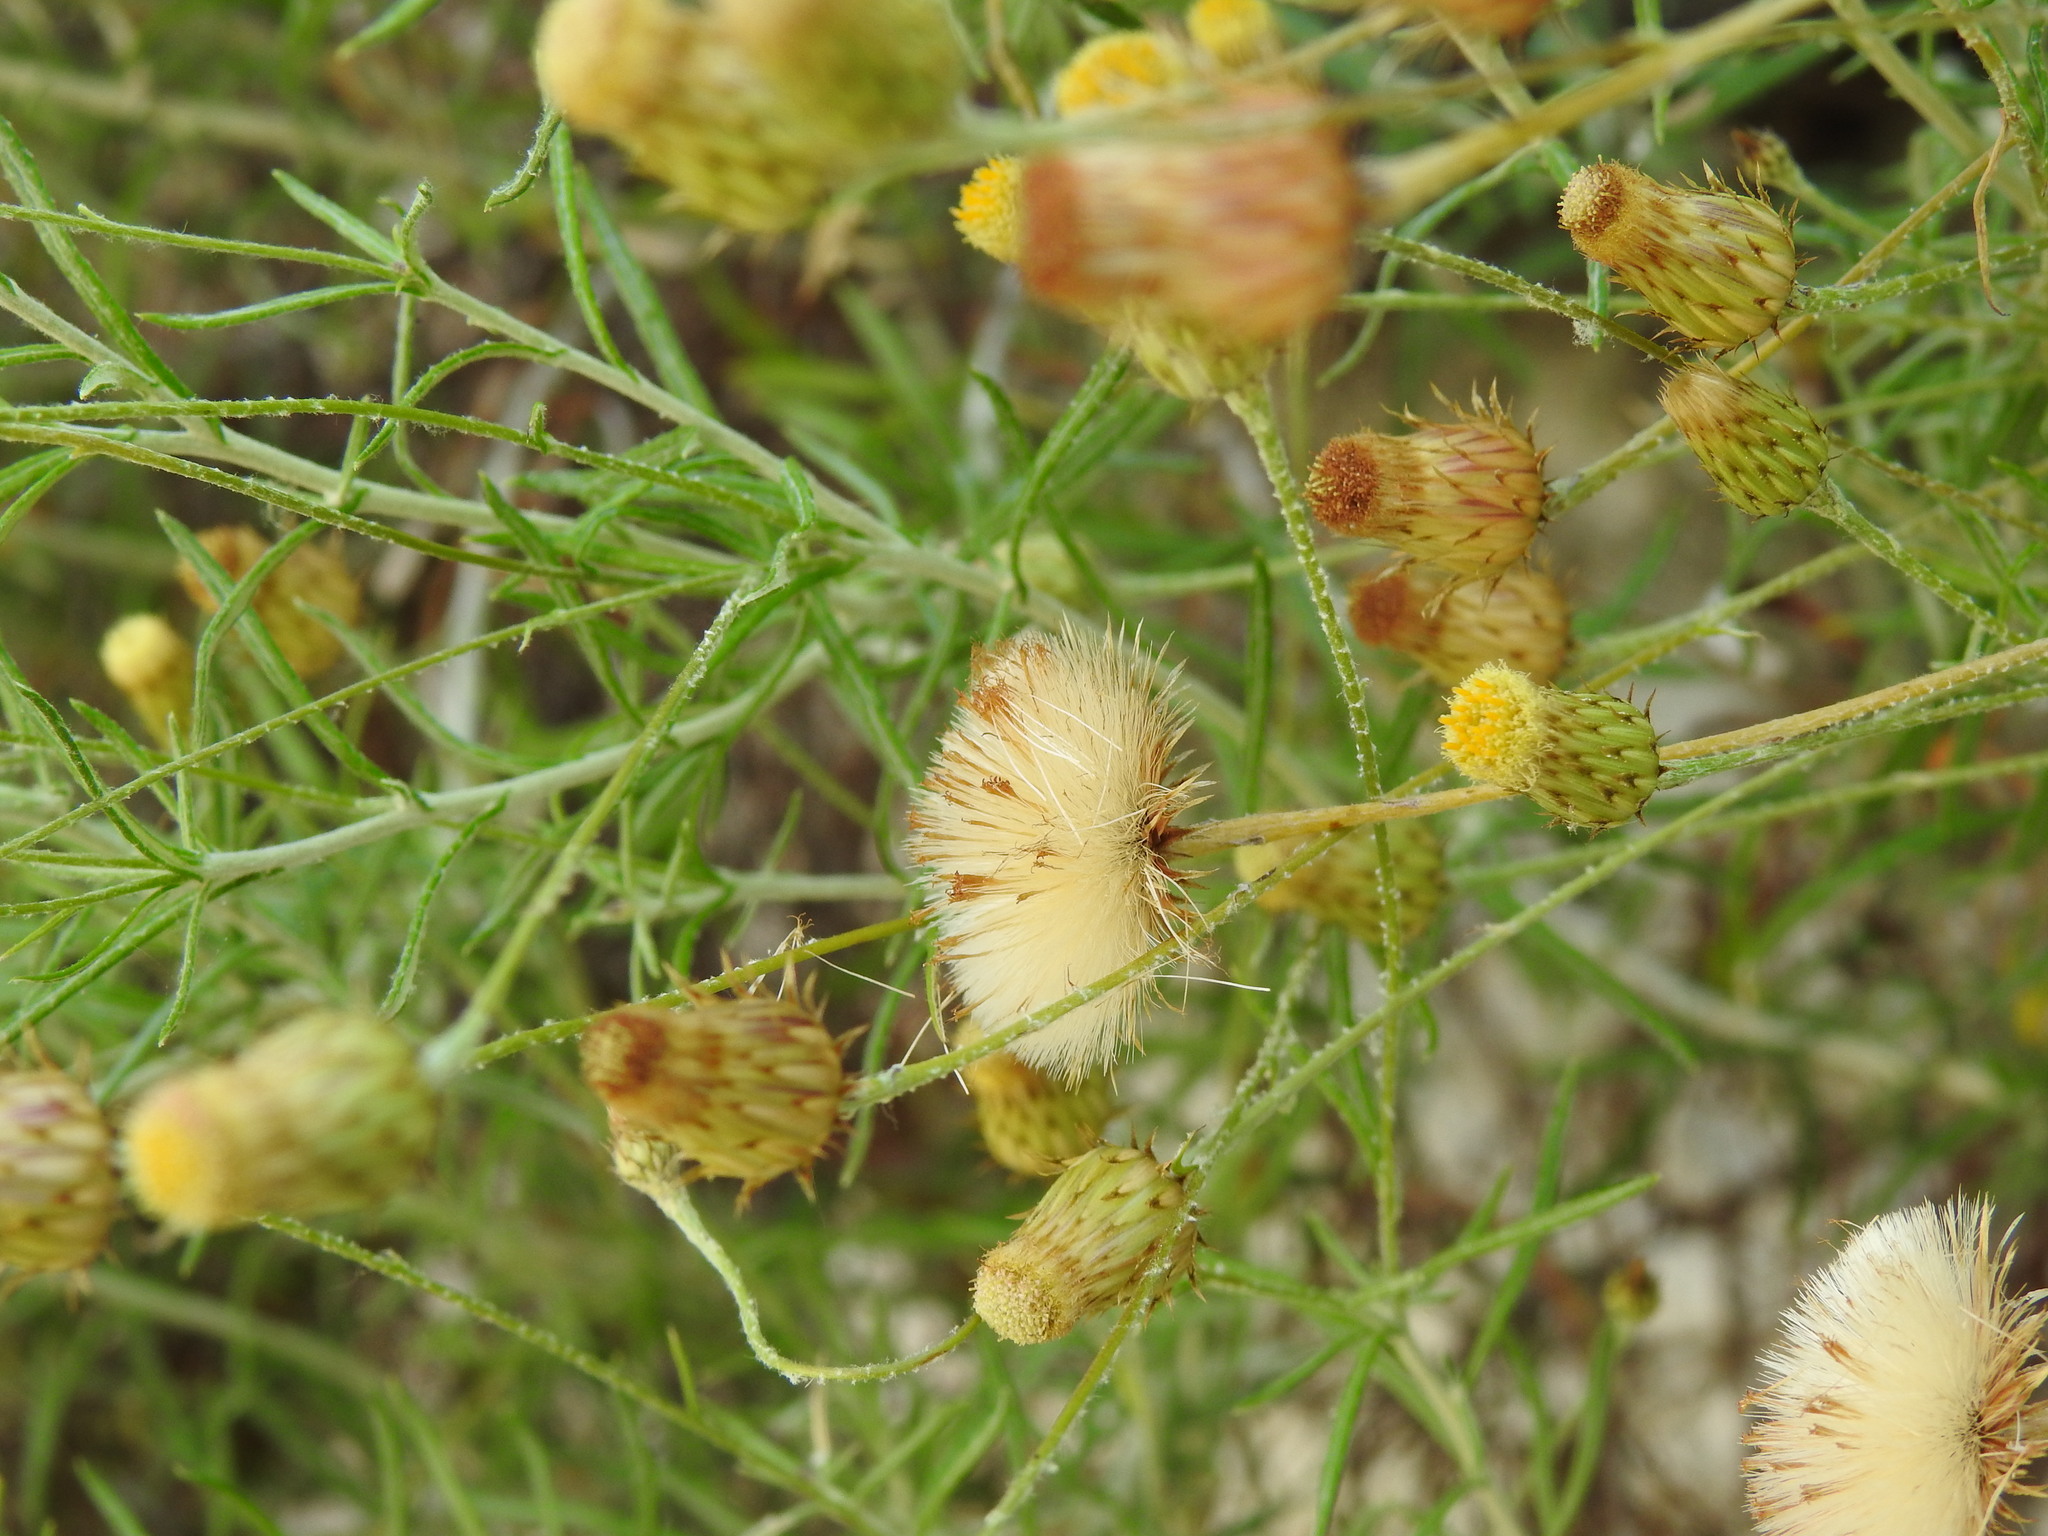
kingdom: Plantae
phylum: Tracheophyta
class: Magnoliopsida
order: Asterales
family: Asteraceae
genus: Phagnalon
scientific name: Phagnalon saxatile
